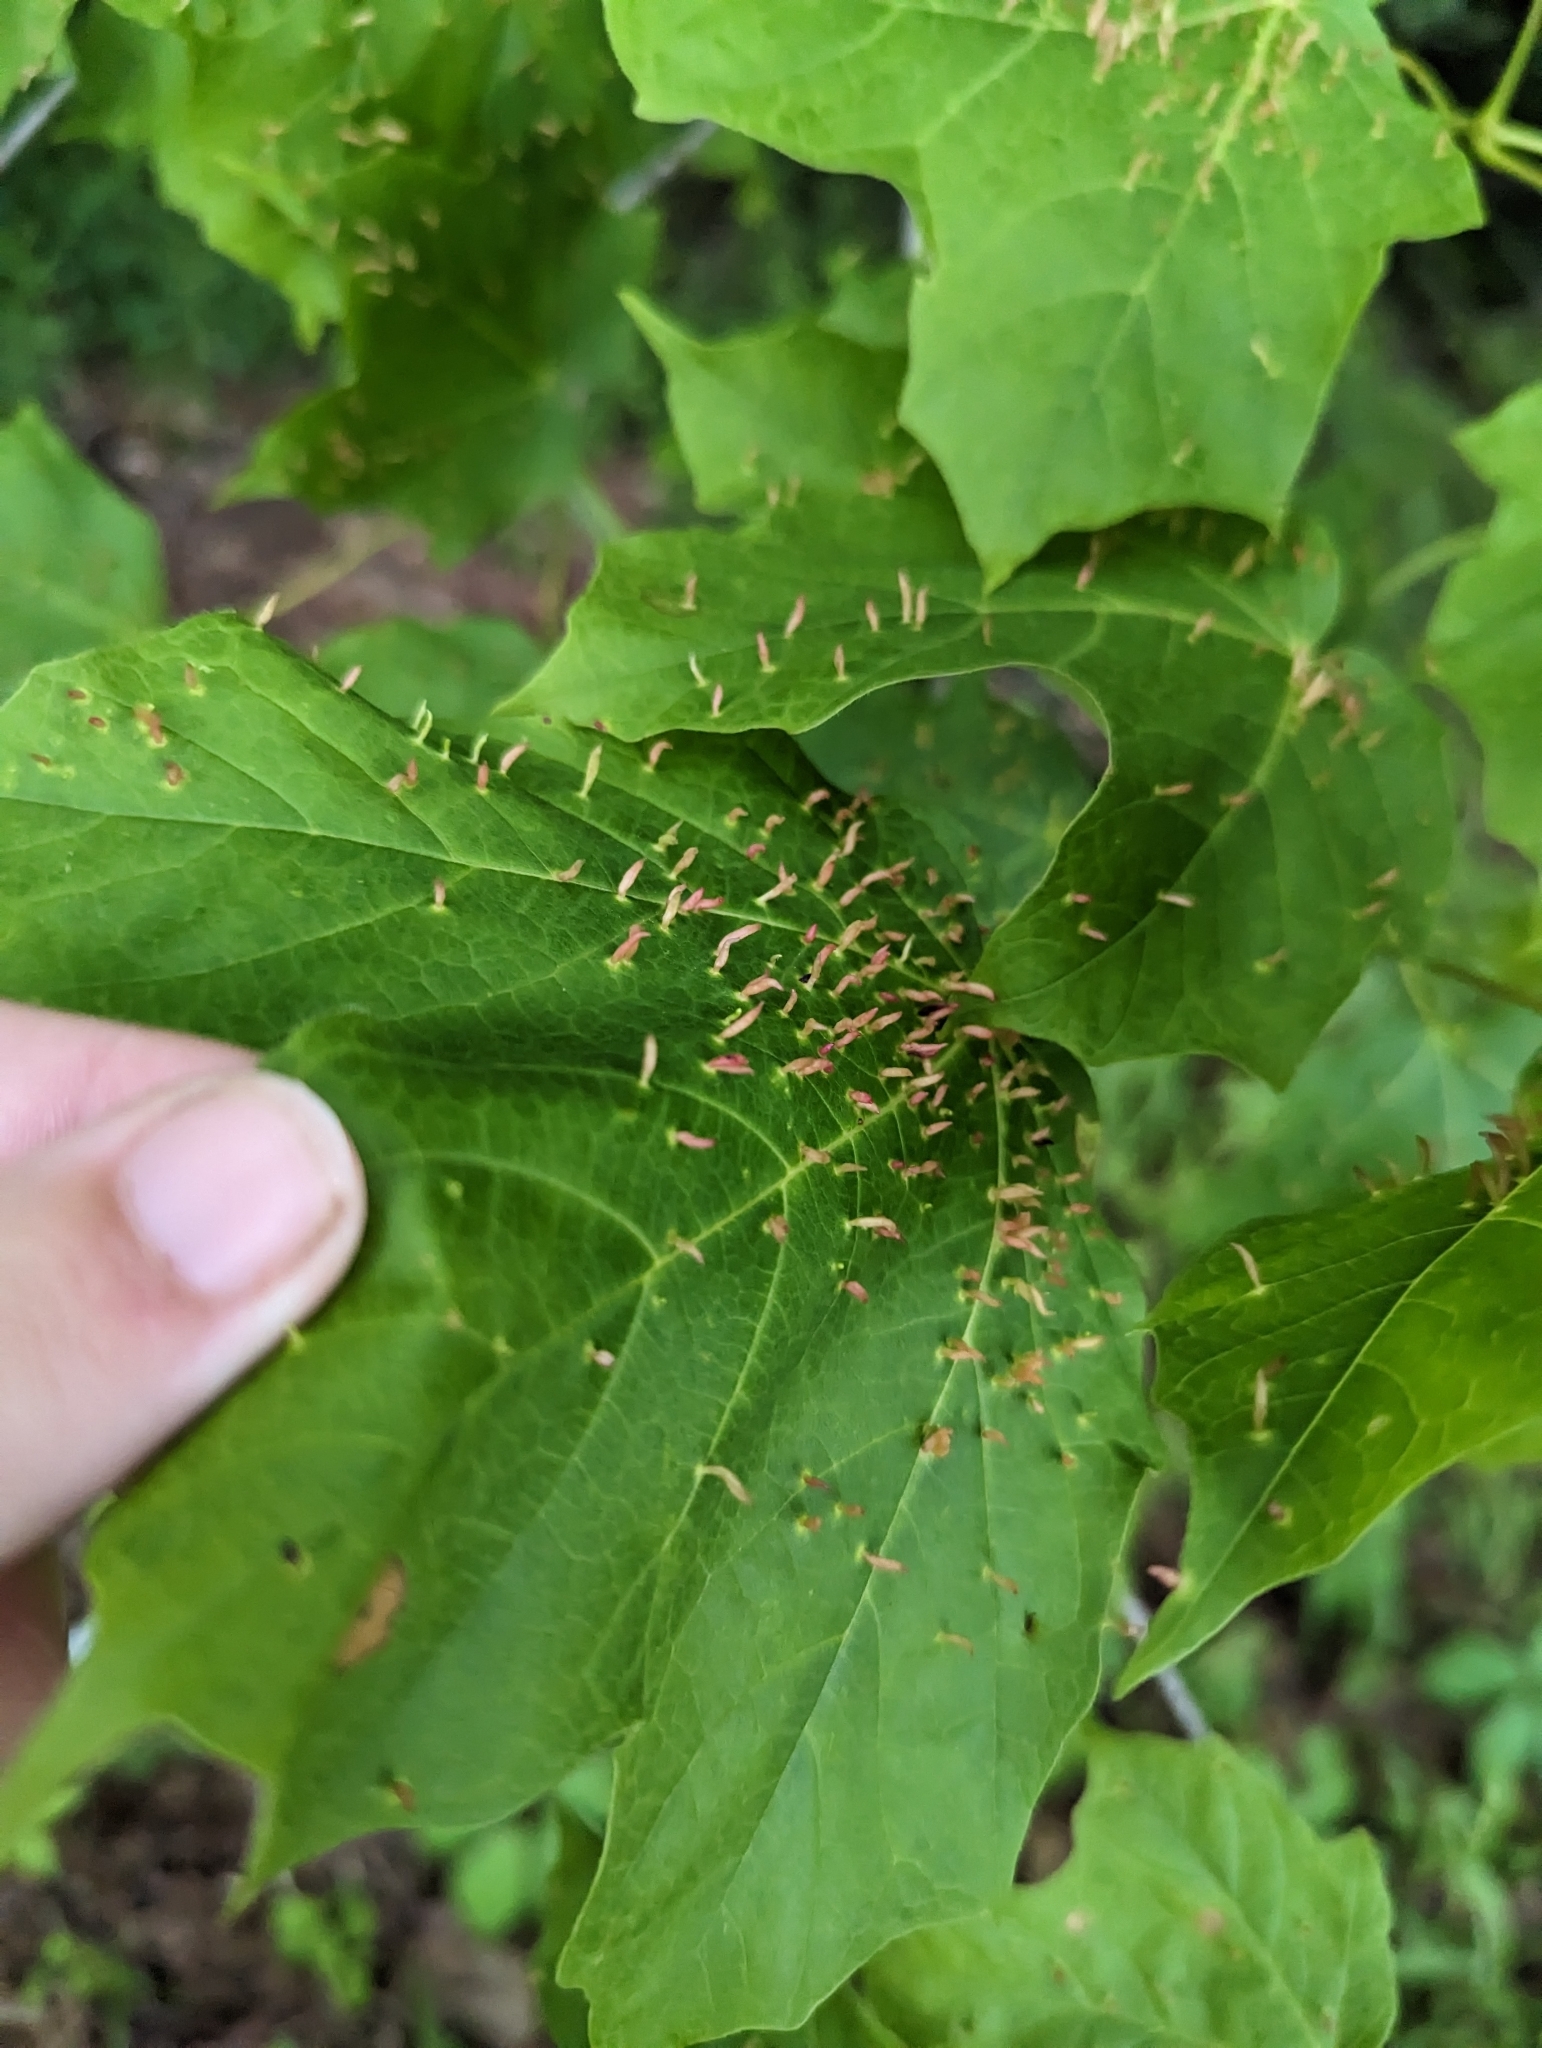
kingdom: Animalia
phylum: Arthropoda
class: Arachnida
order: Trombidiformes
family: Eriophyidae
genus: Vasates
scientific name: Vasates aceriscrumena
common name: Maple spindle gall mite
